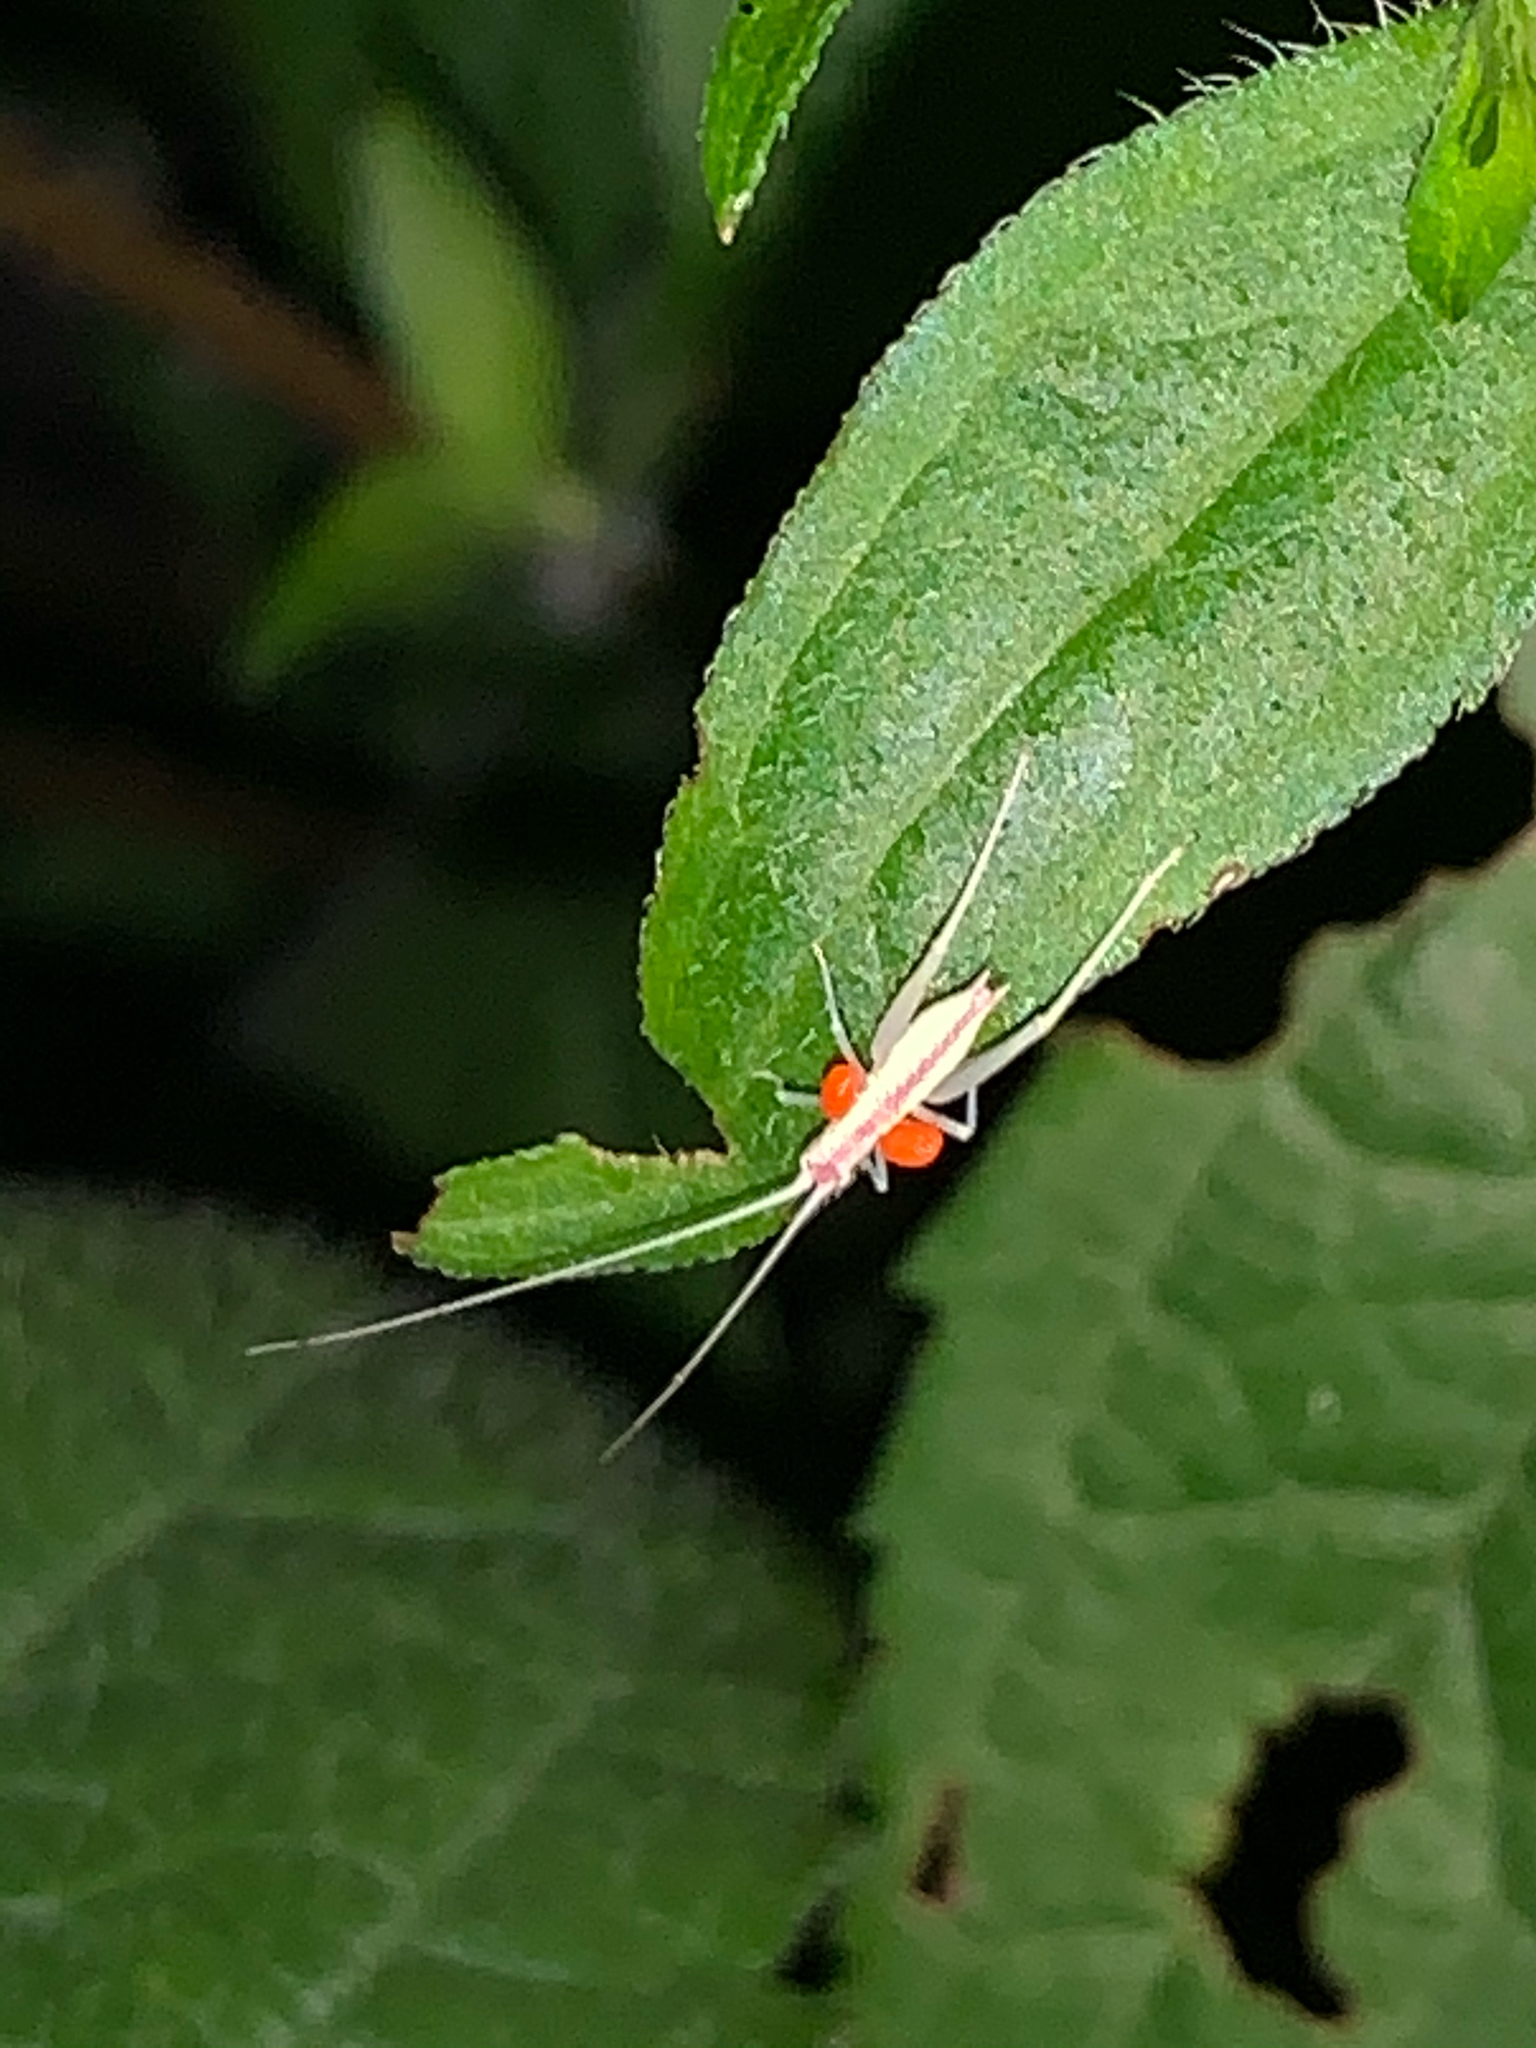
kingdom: Animalia
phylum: Arthropoda
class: Insecta
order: Orthoptera
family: Gryllidae
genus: Oecanthus
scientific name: Oecanthus latipennis
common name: Broad-winged tree cricket
